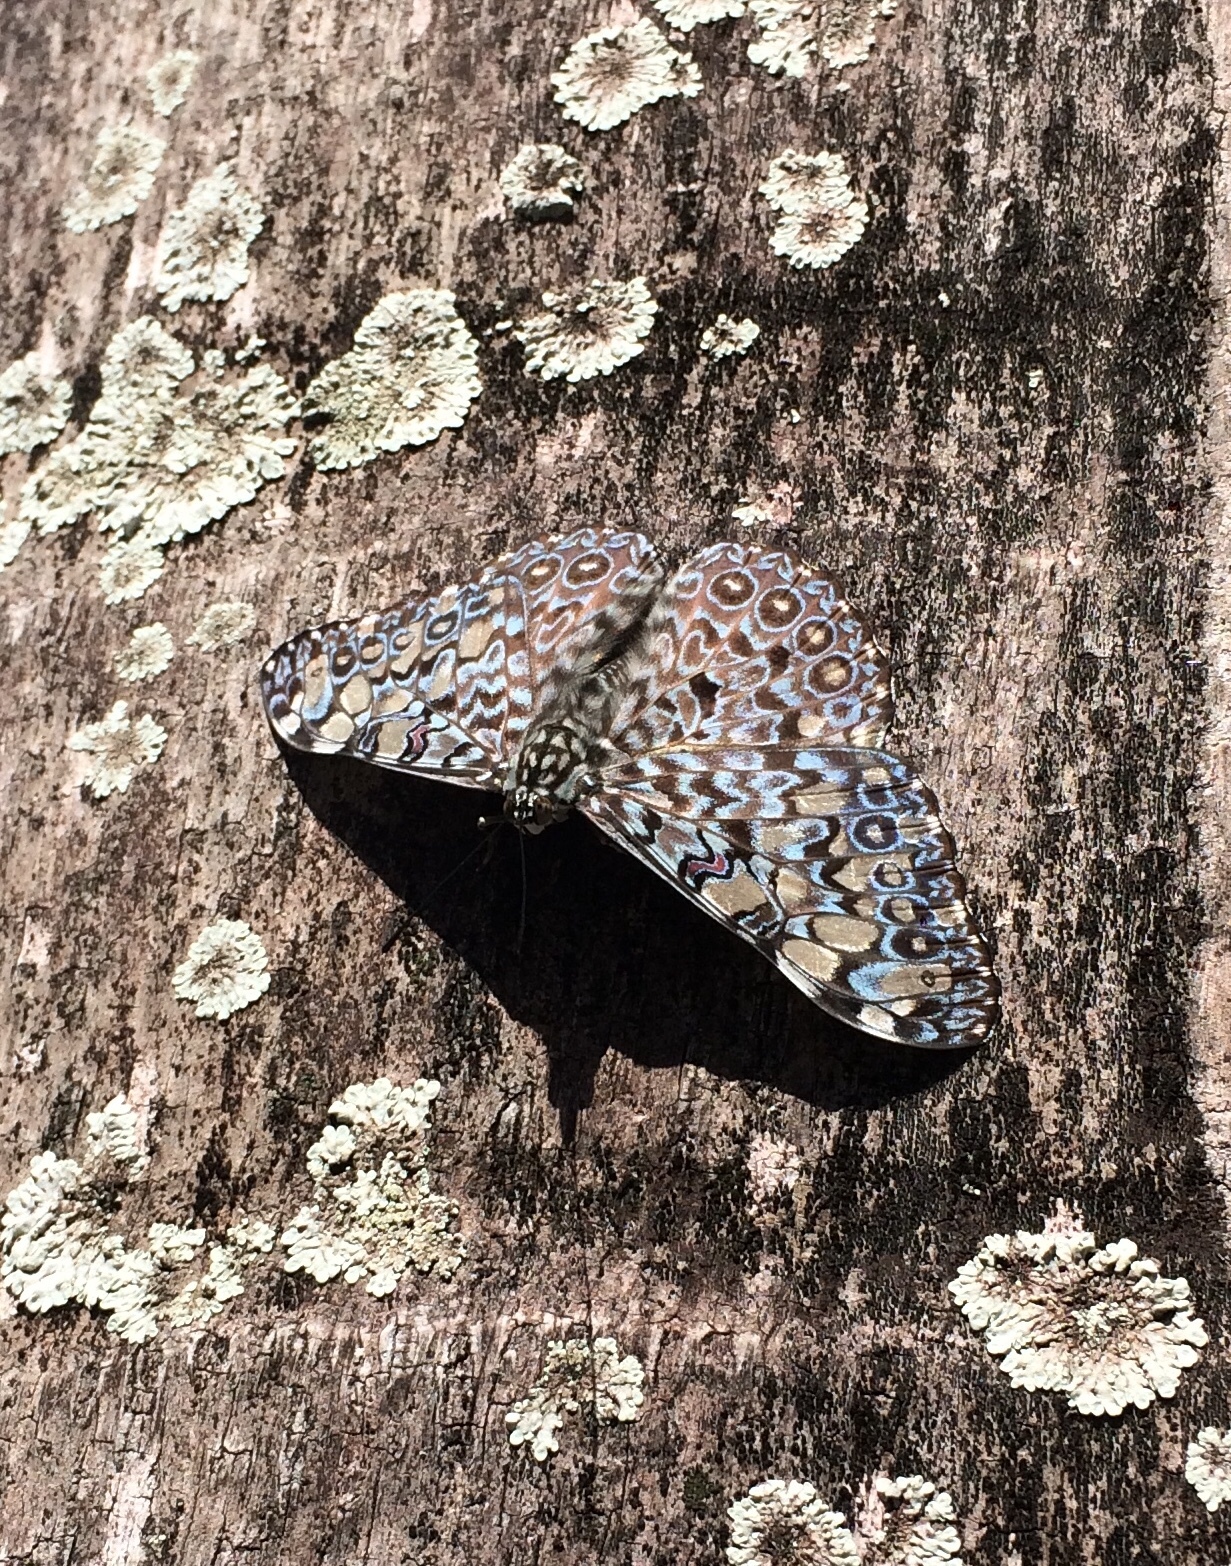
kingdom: Animalia
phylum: Arthropoda
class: Insecta
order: Lepidoptera
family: Nymphalidae
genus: Hamadryas
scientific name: Hamadryas feronia
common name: Variable cracker
